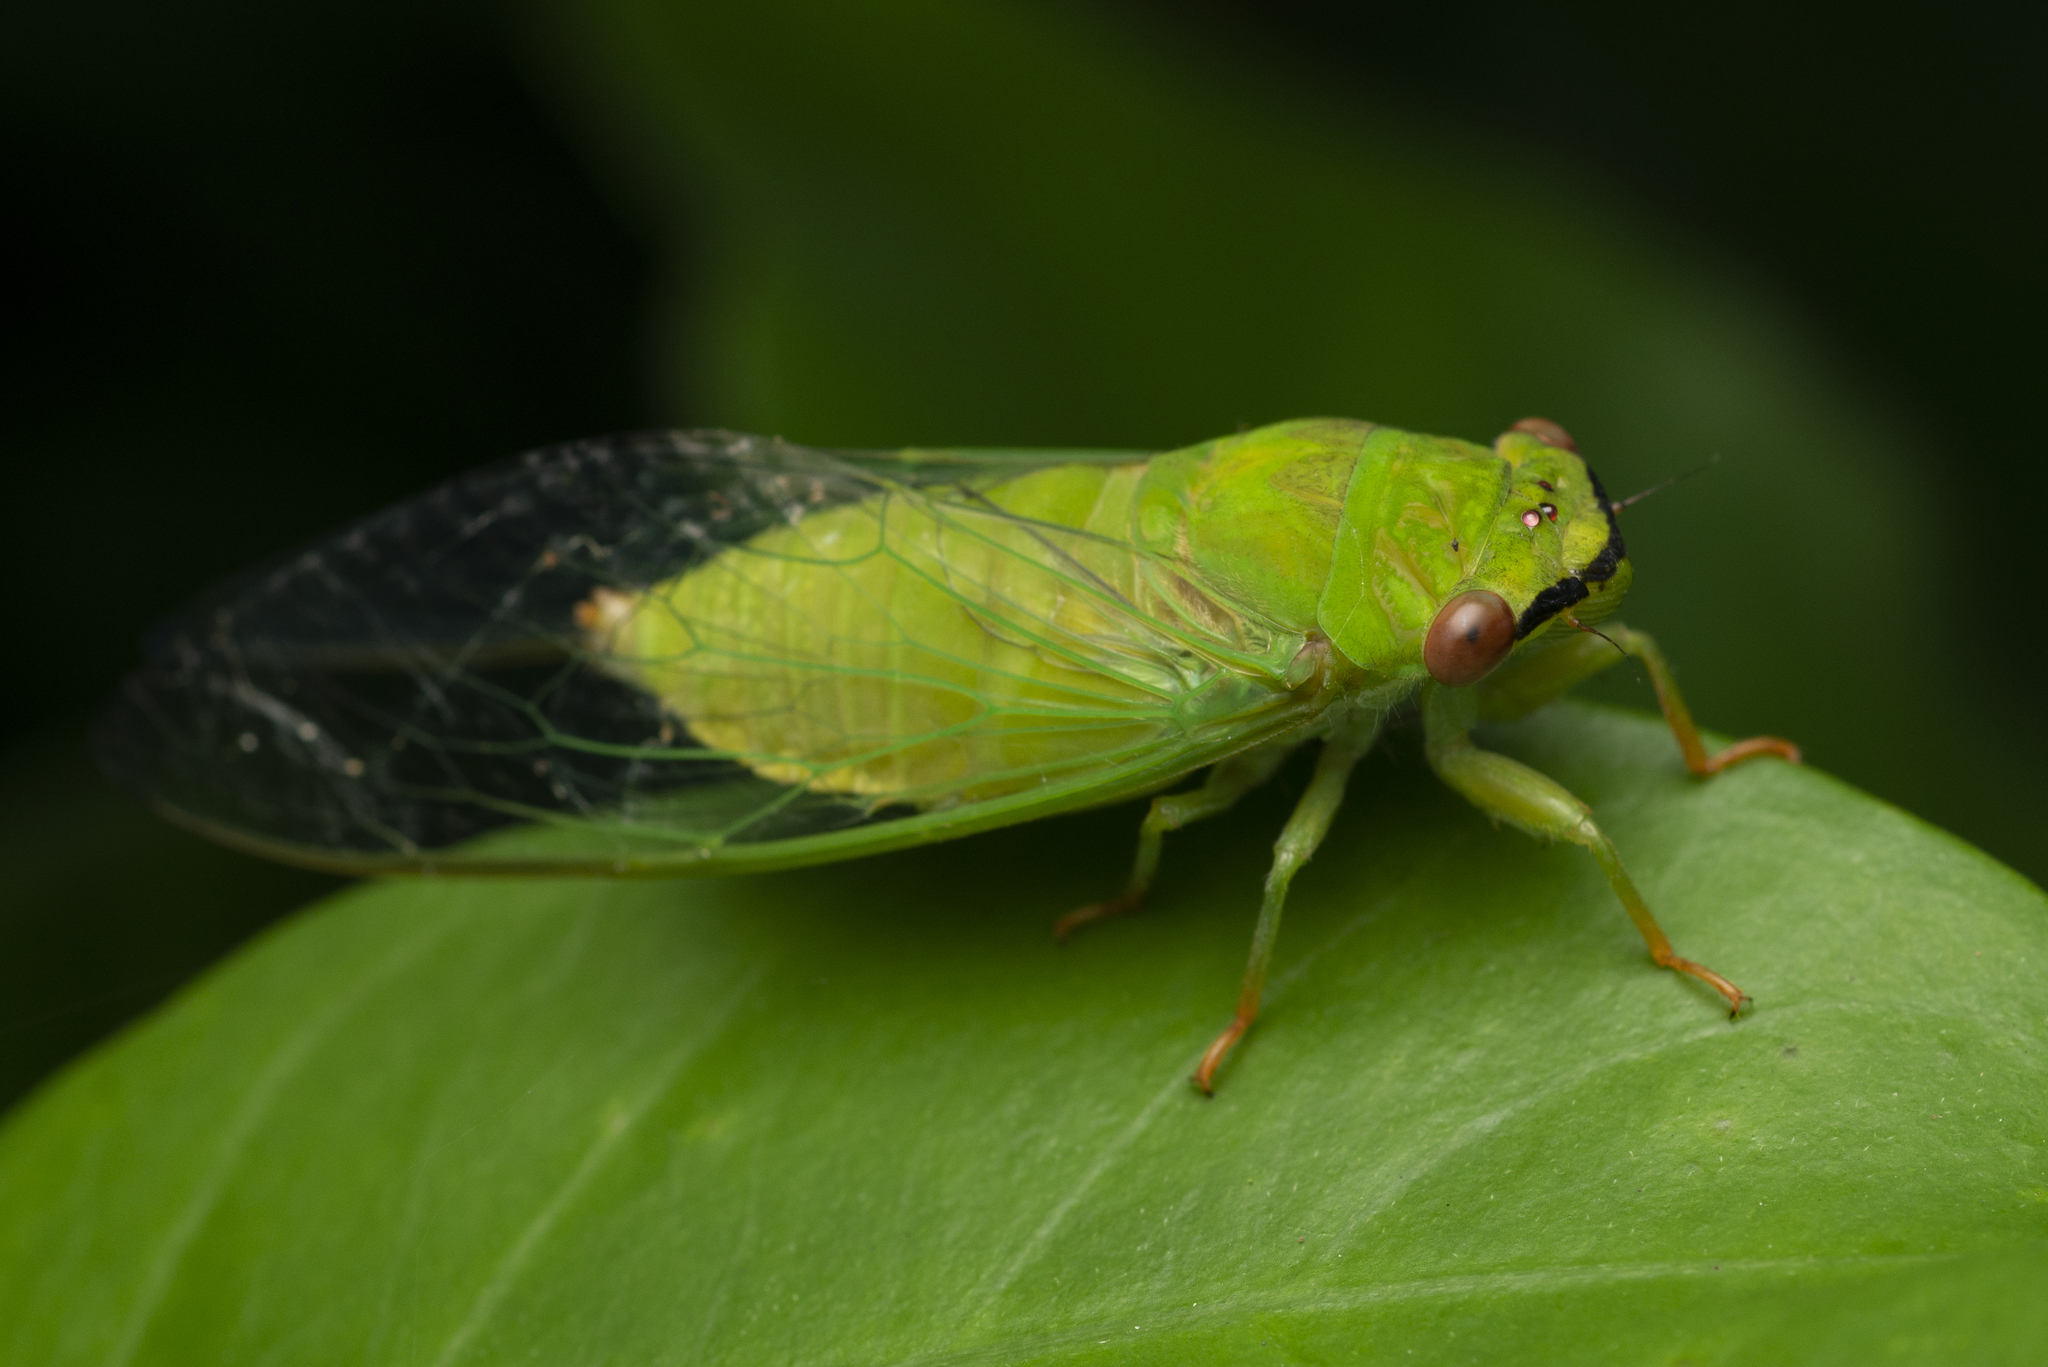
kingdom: Animalia
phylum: Arthropoda
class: Insecta
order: Hemiptera
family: Cicadidae
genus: Chremistica
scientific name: Chremistica ochracea
